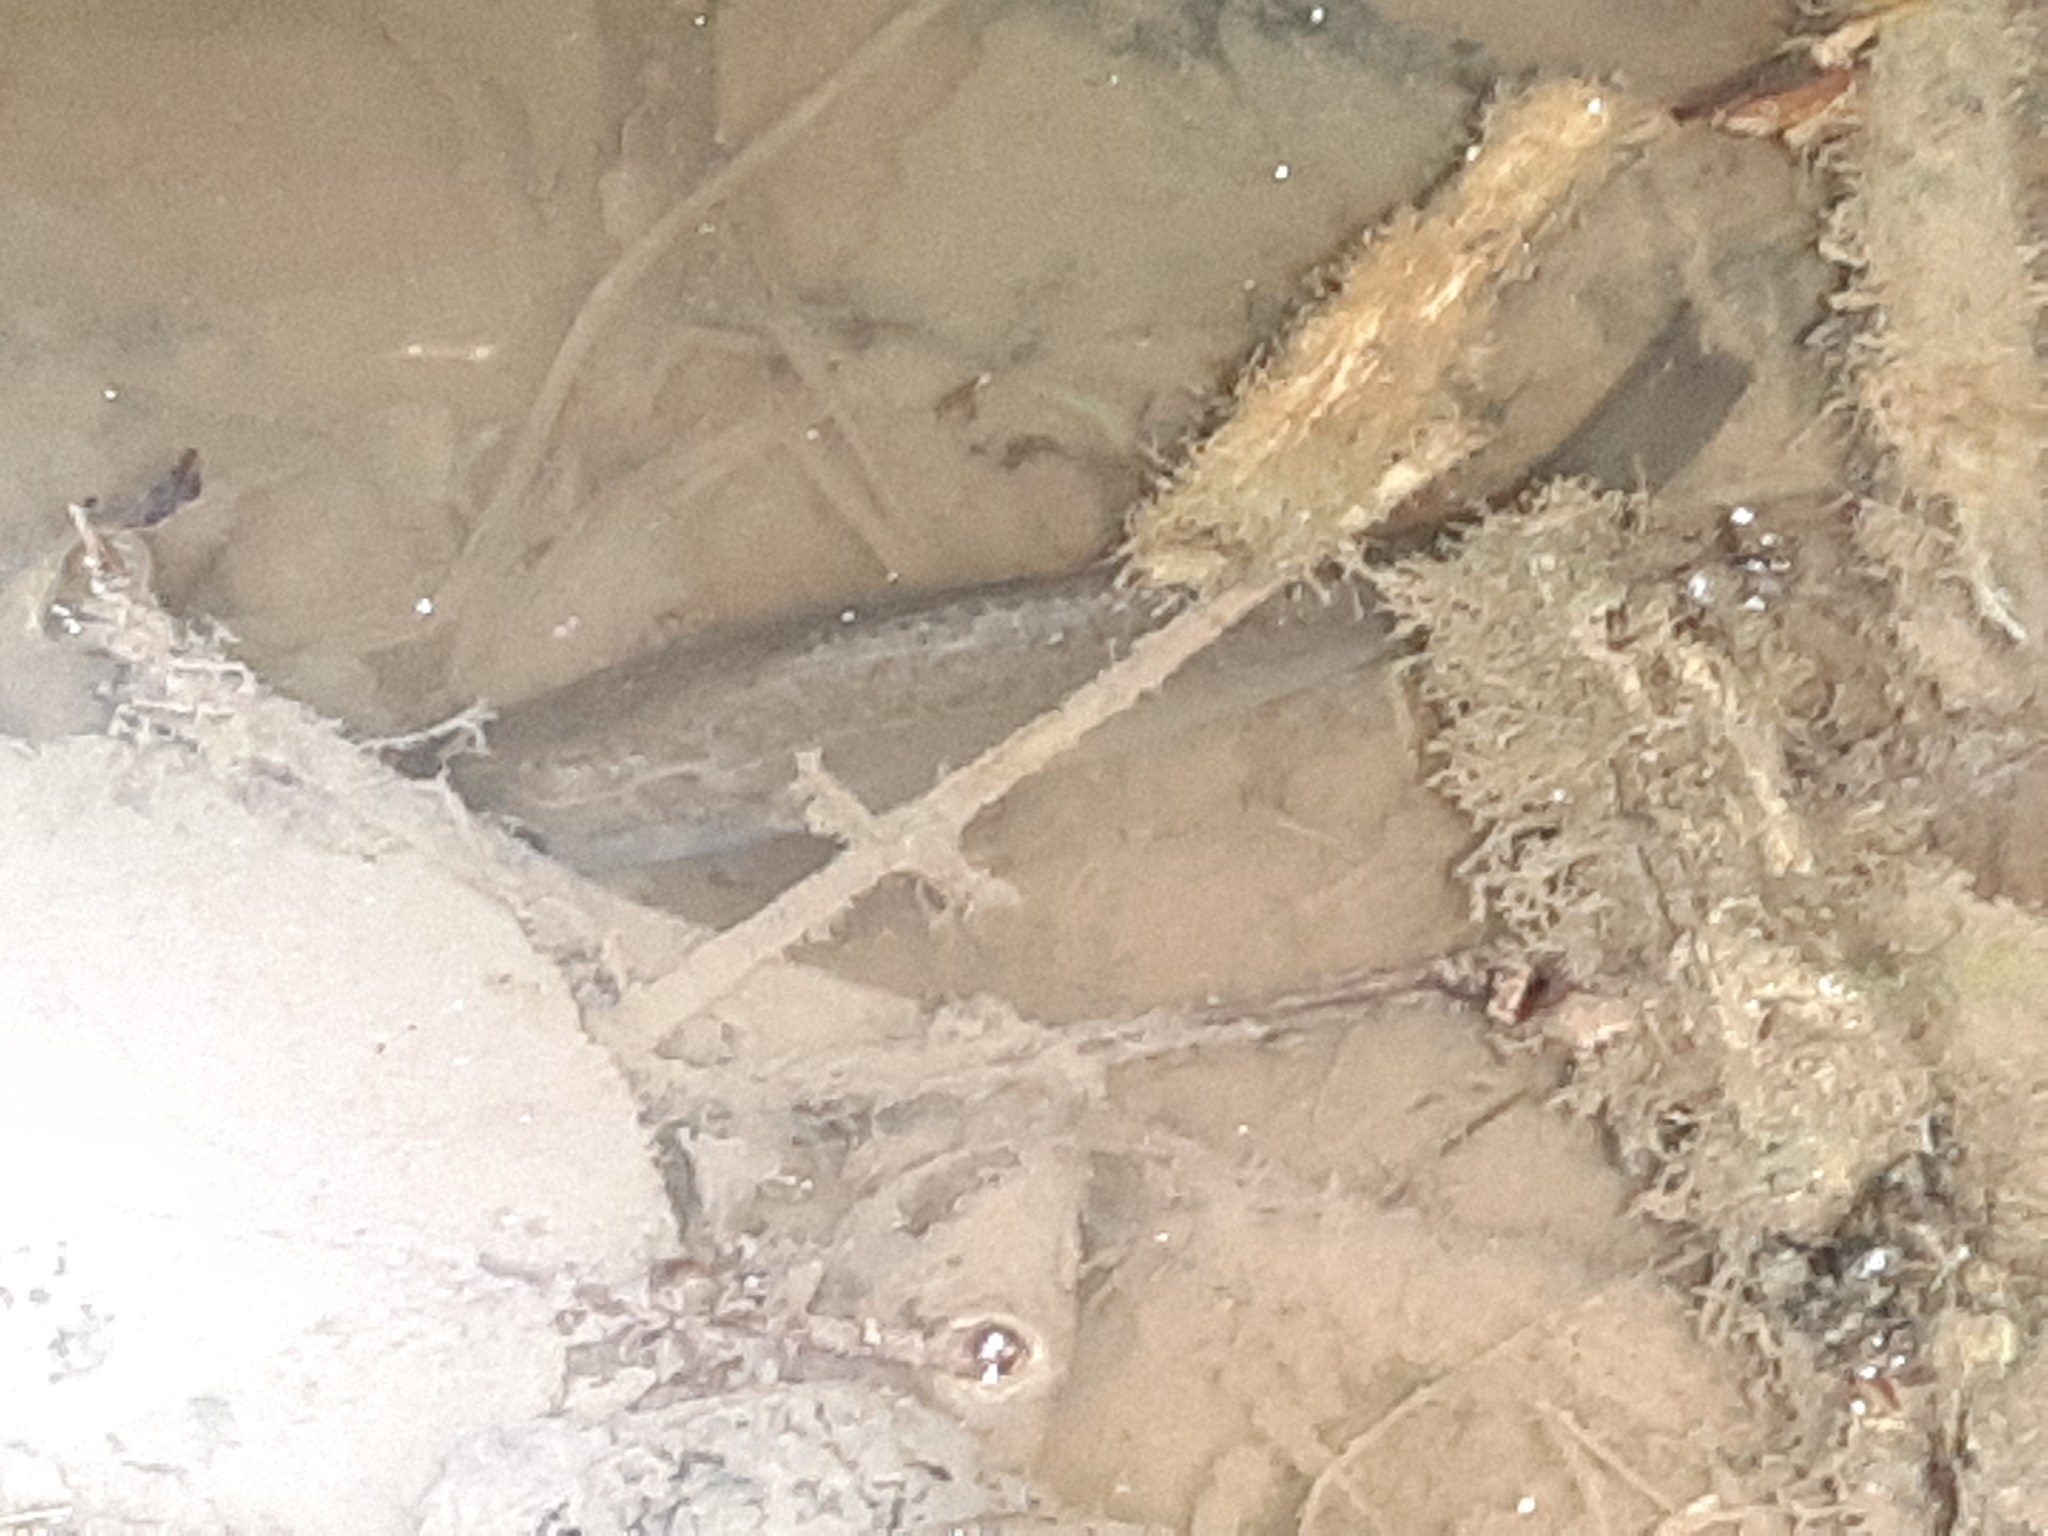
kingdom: Animalia
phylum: Chordata
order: Perciformes
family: Centrarchidae
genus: Lepomis
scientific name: Lepomis gibbosus
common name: Pumpkinseed
